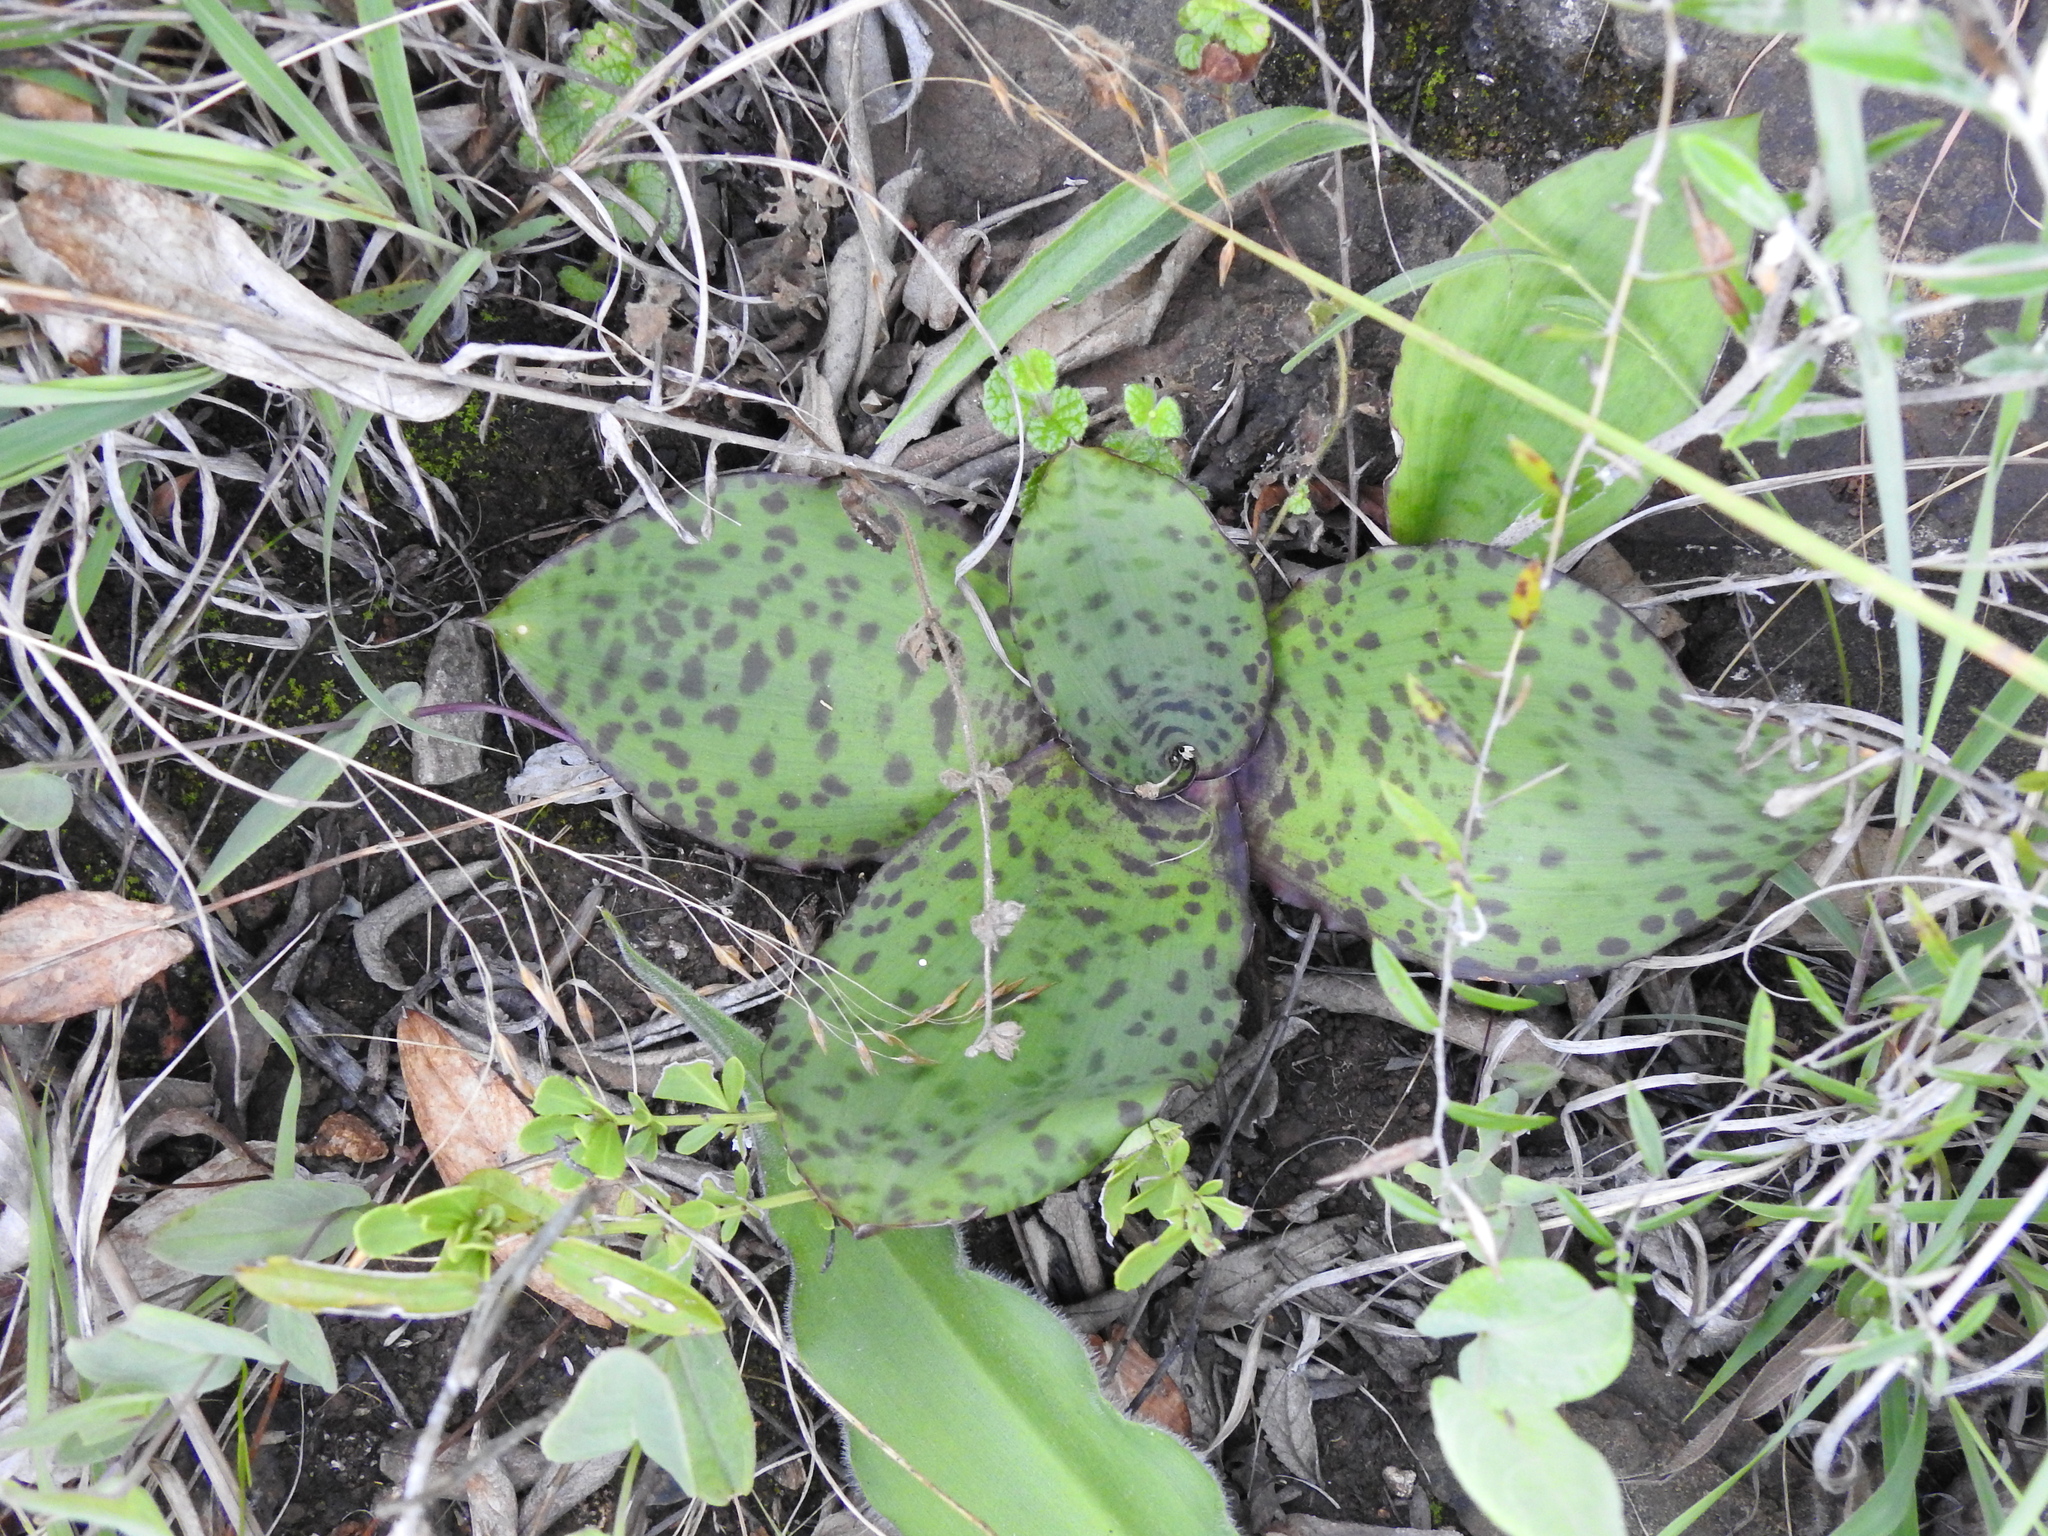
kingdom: Plantae
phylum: Tracheophyta
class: Liliopsida
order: Asparagales
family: Asparagaceae
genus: Ledebouria
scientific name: Ledebouria ovatifolia
